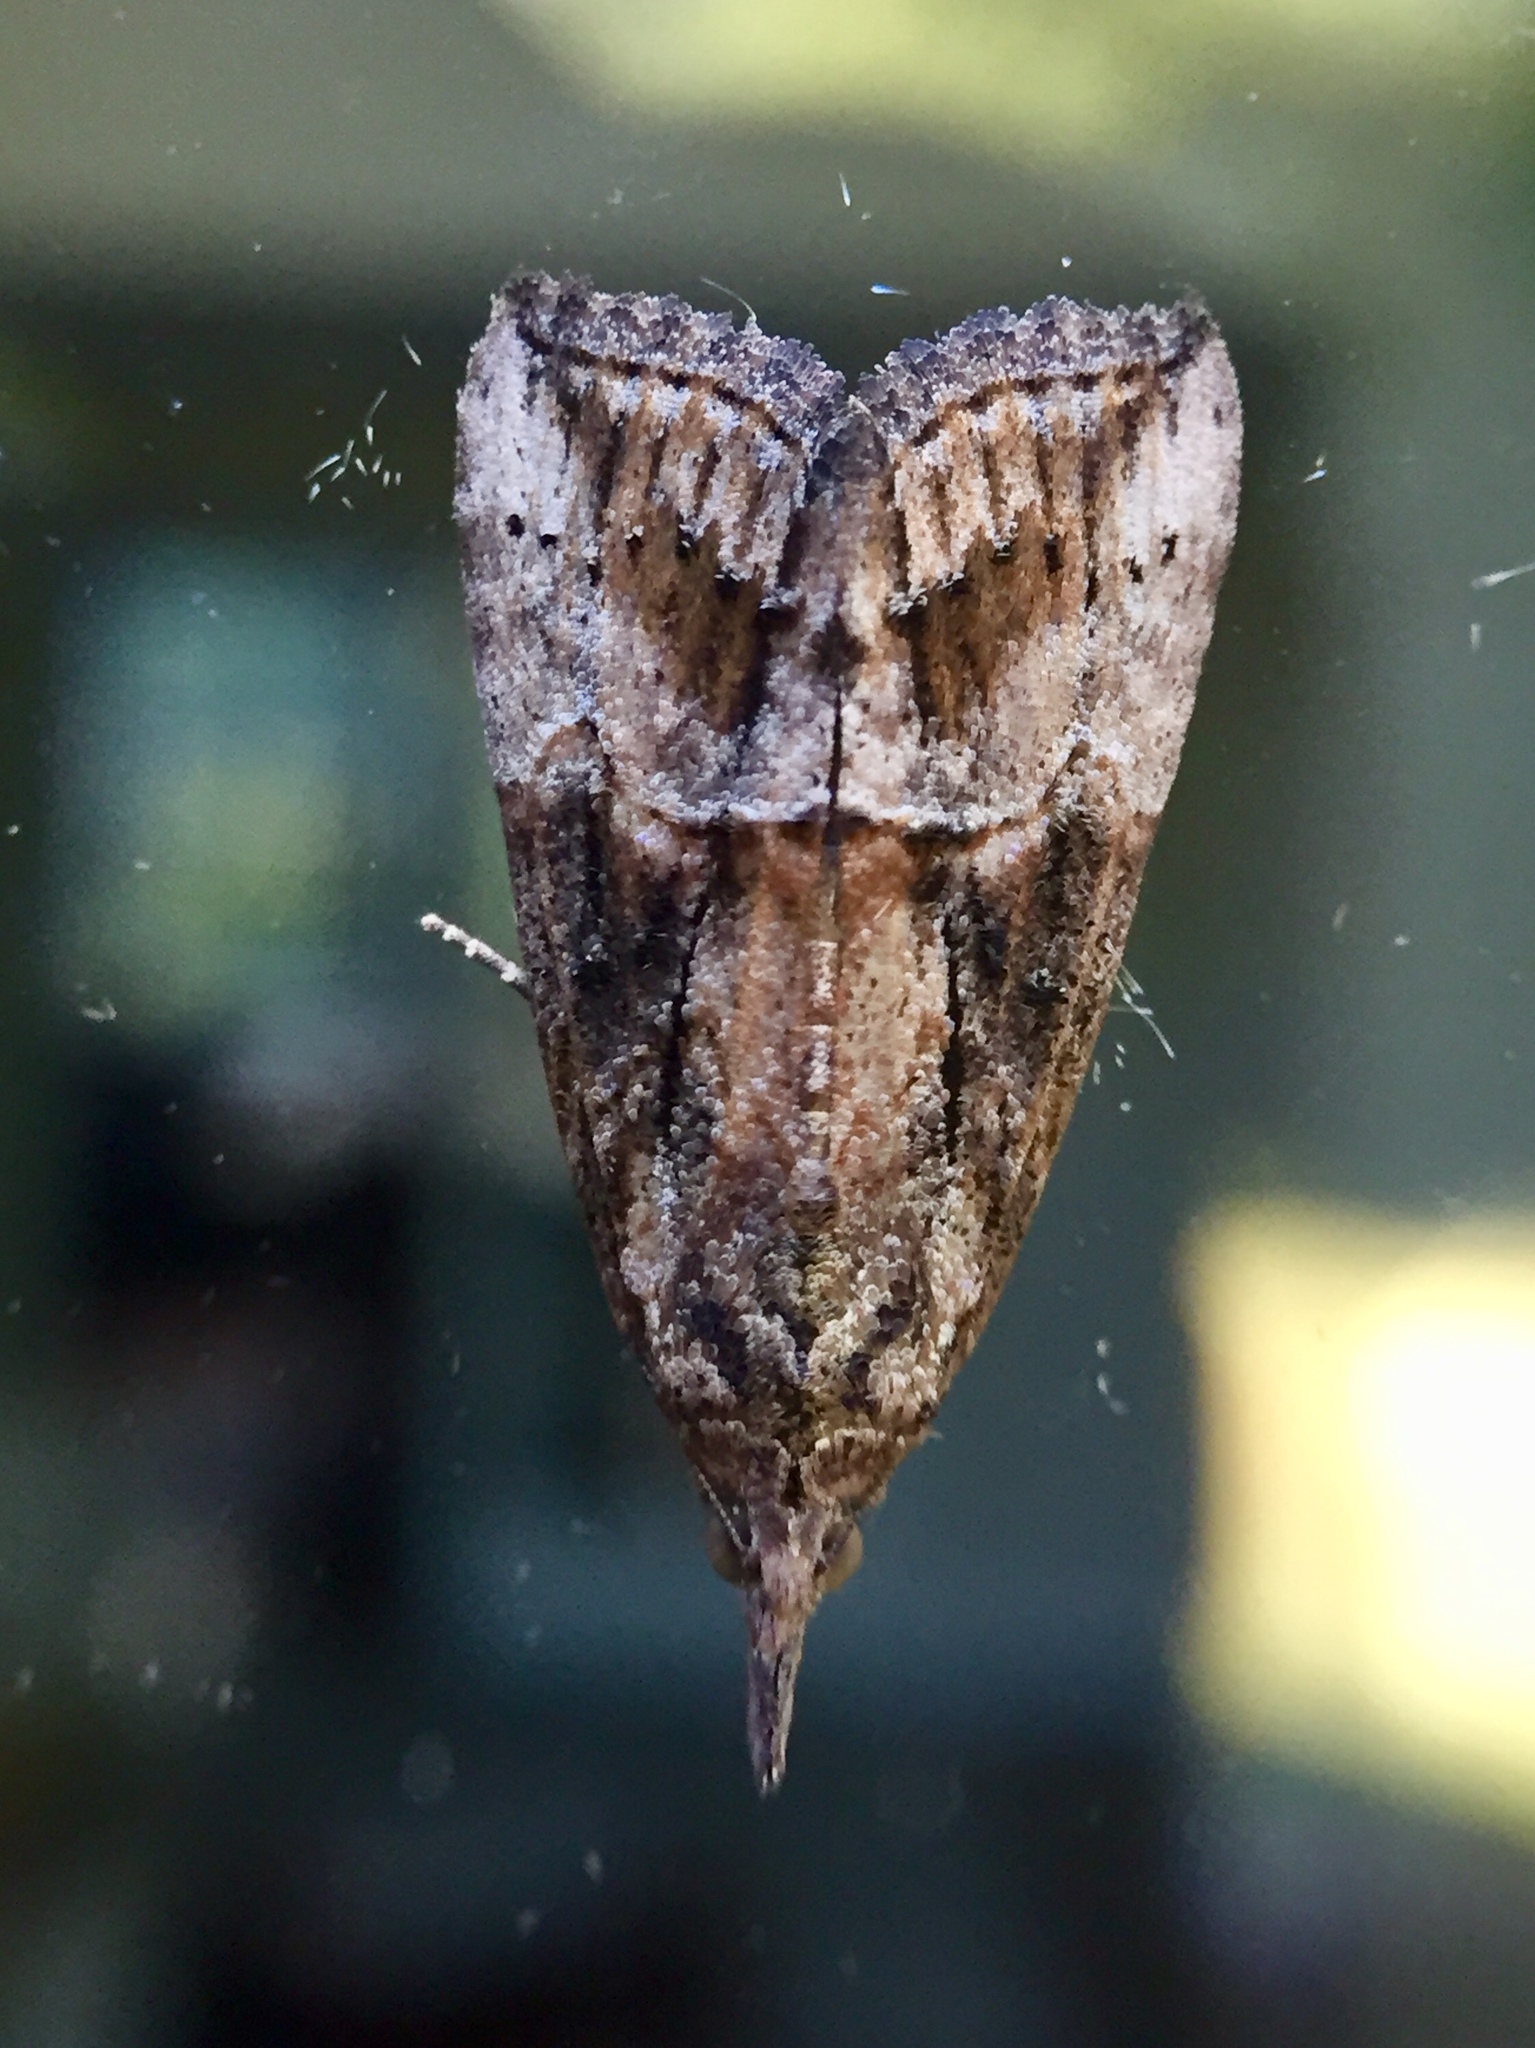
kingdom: Animalia
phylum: Arthropoda
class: Insecta
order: Lepidoptera
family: Erebidae
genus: Hypena
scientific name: Hypena scabra
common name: Green cloverworm
